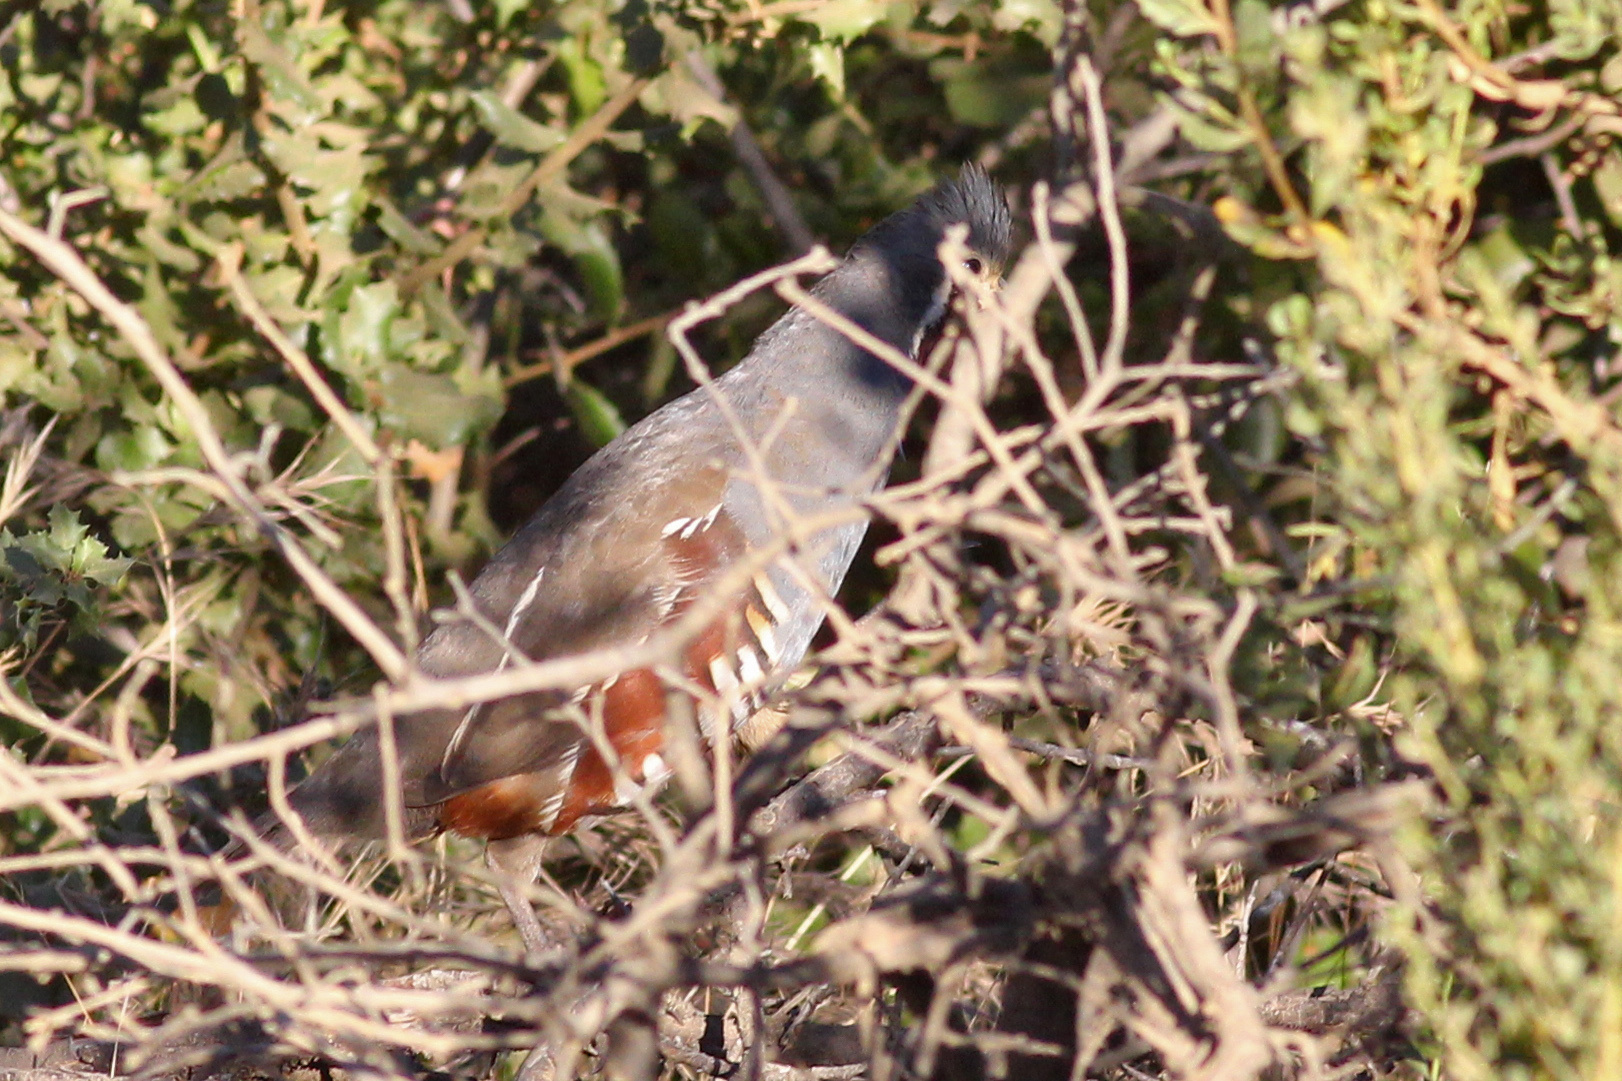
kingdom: Animalia
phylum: Chordata
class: Aves
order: Galliformes
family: Odontophoridae
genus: Oreortyx
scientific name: Oreortyx pictus
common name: Mountain quail
